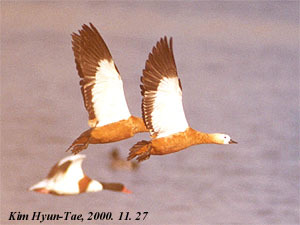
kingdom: Animalia
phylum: Chordata
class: Aves
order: Anseriformes
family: Anatidae
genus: Tadorna
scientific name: Tadorna ferruginea
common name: Ruddy shelduck
